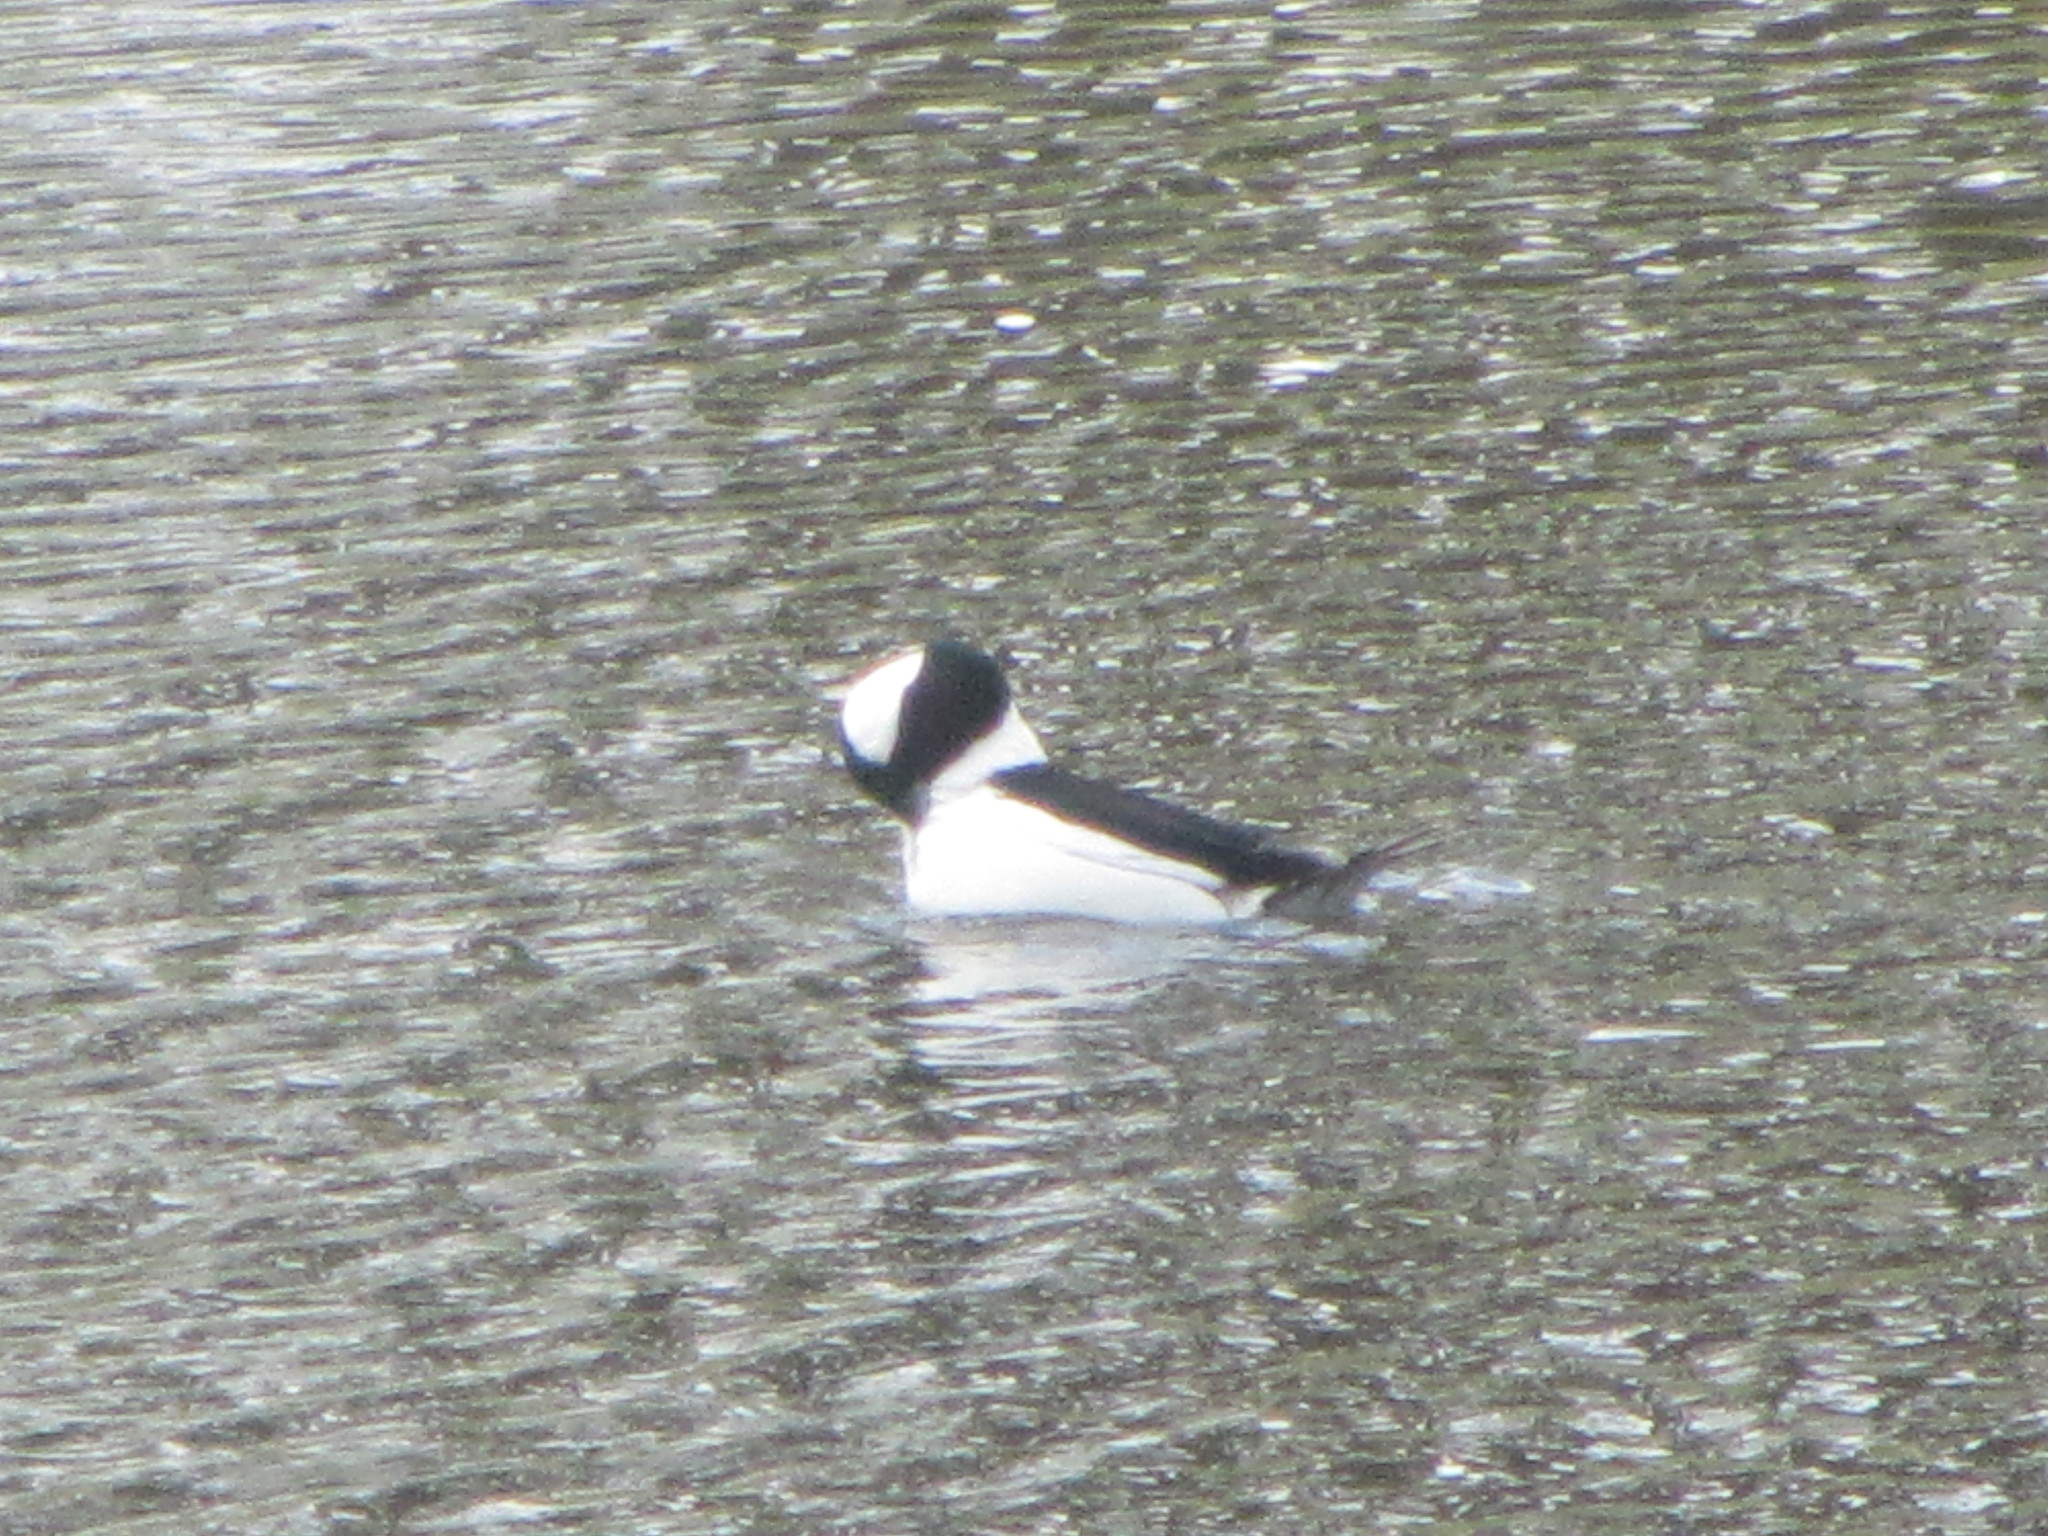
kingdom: Animalia
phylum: Chordata
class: Aves
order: Anseriformes
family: Anatidae
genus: Bucephala
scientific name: Bucephala albeola
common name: Bufflehead
